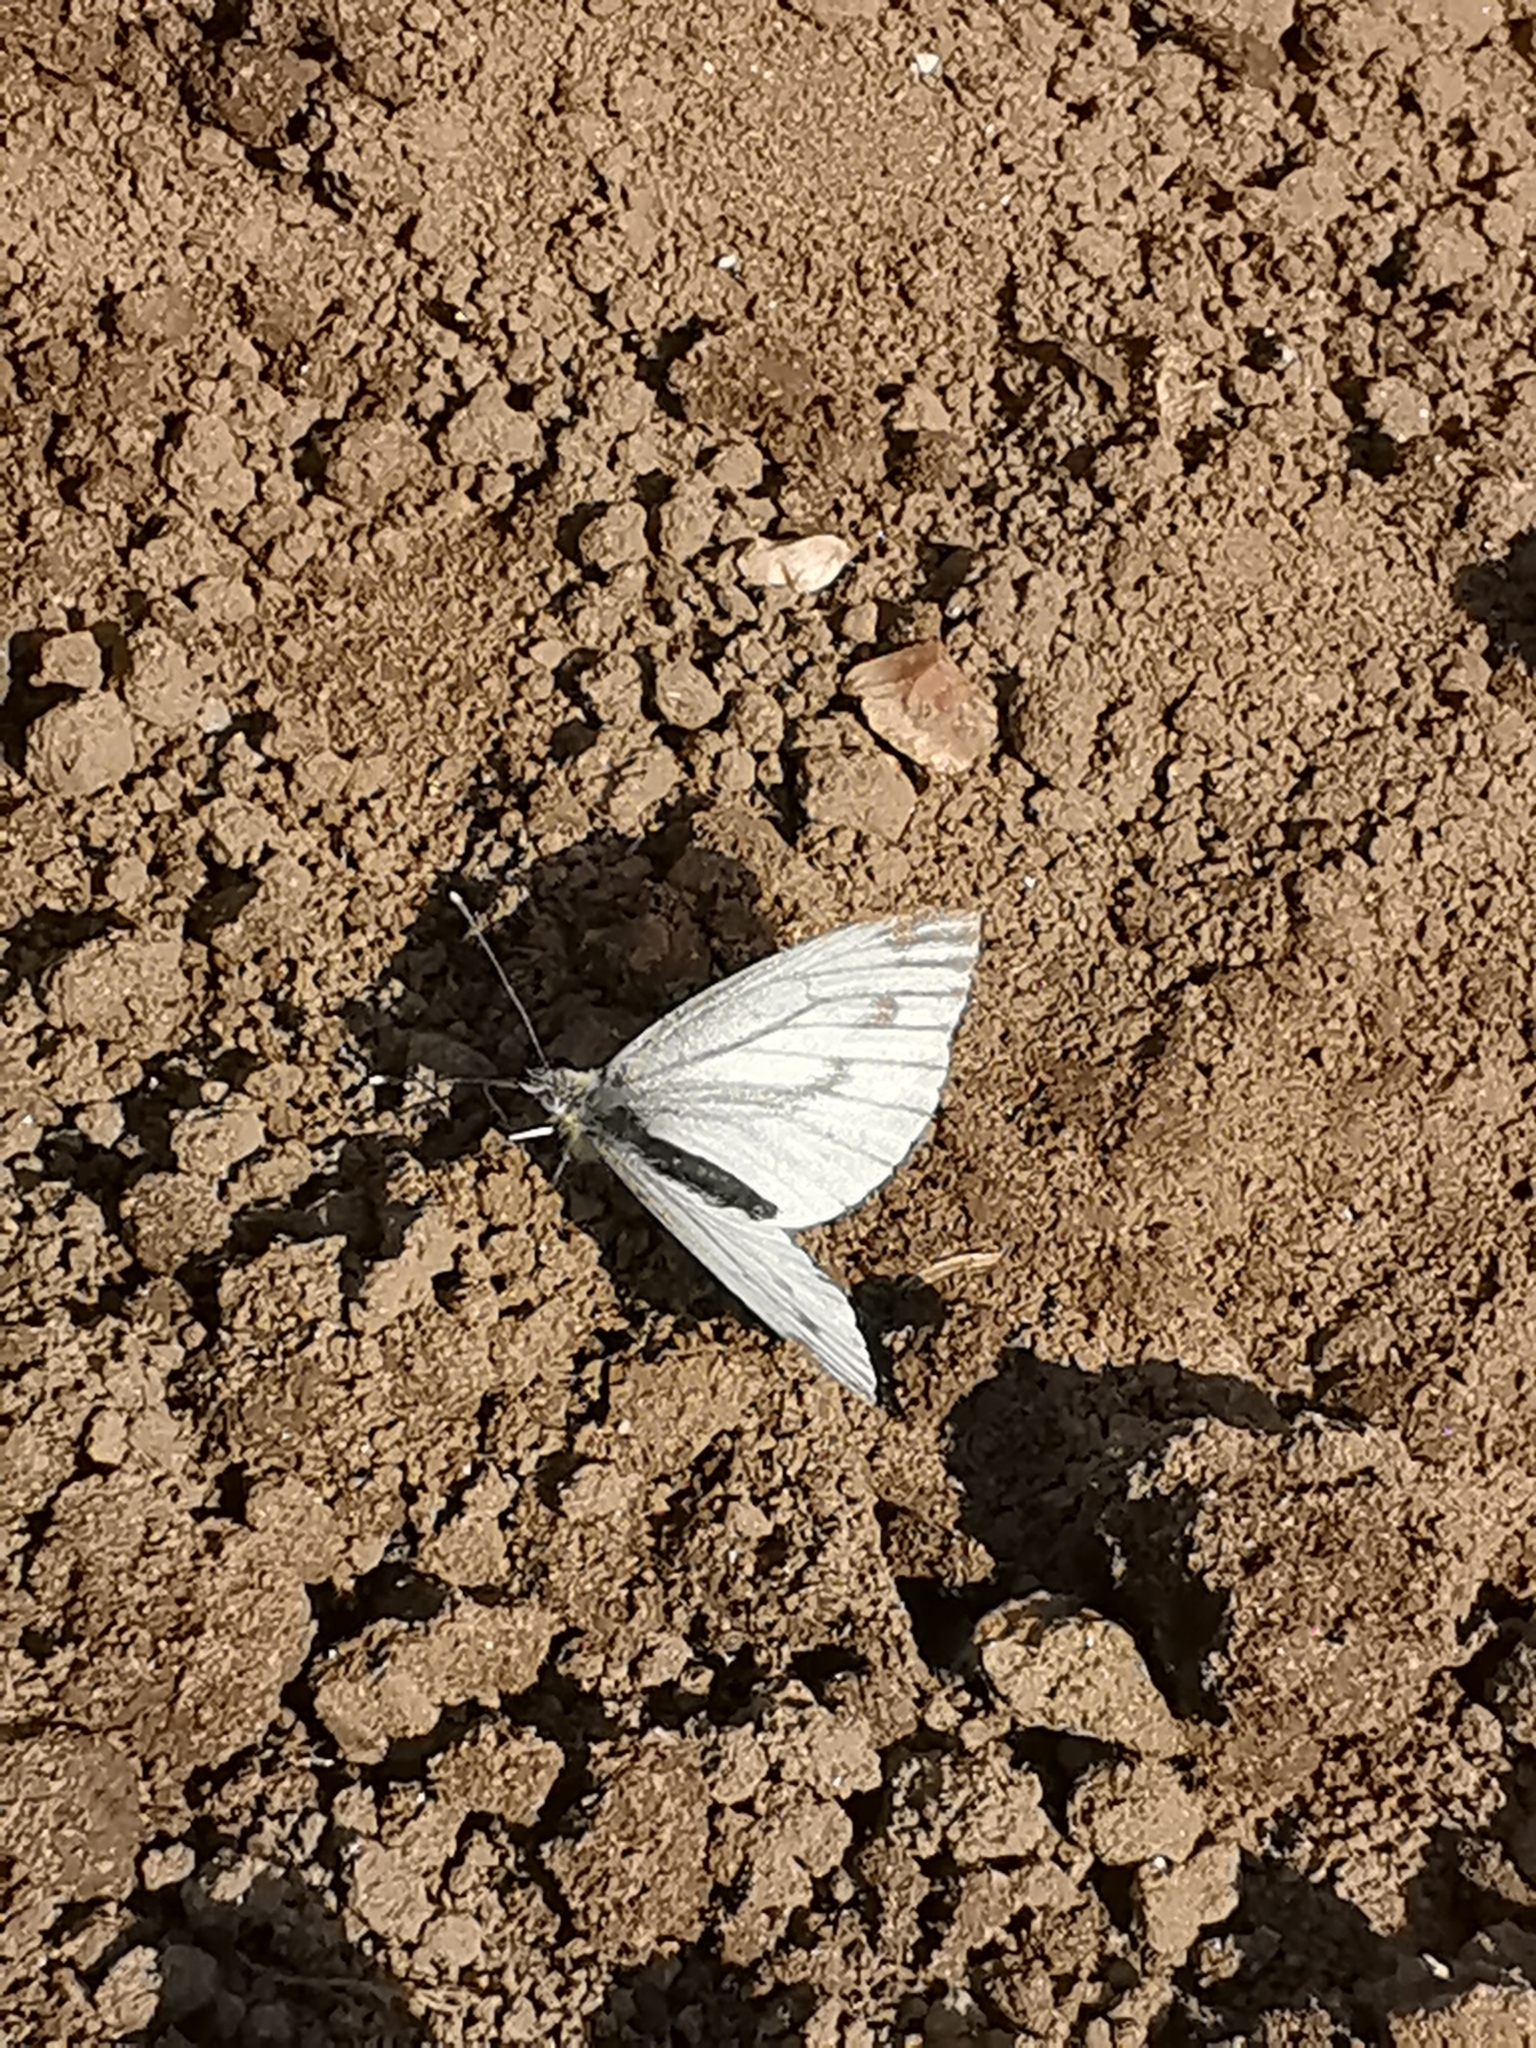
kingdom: Animalia
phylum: Arthropoda
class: Insecta
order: Lepidoptera
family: Pieridae
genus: Pieris
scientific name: Pieris napi
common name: Green-veined white
